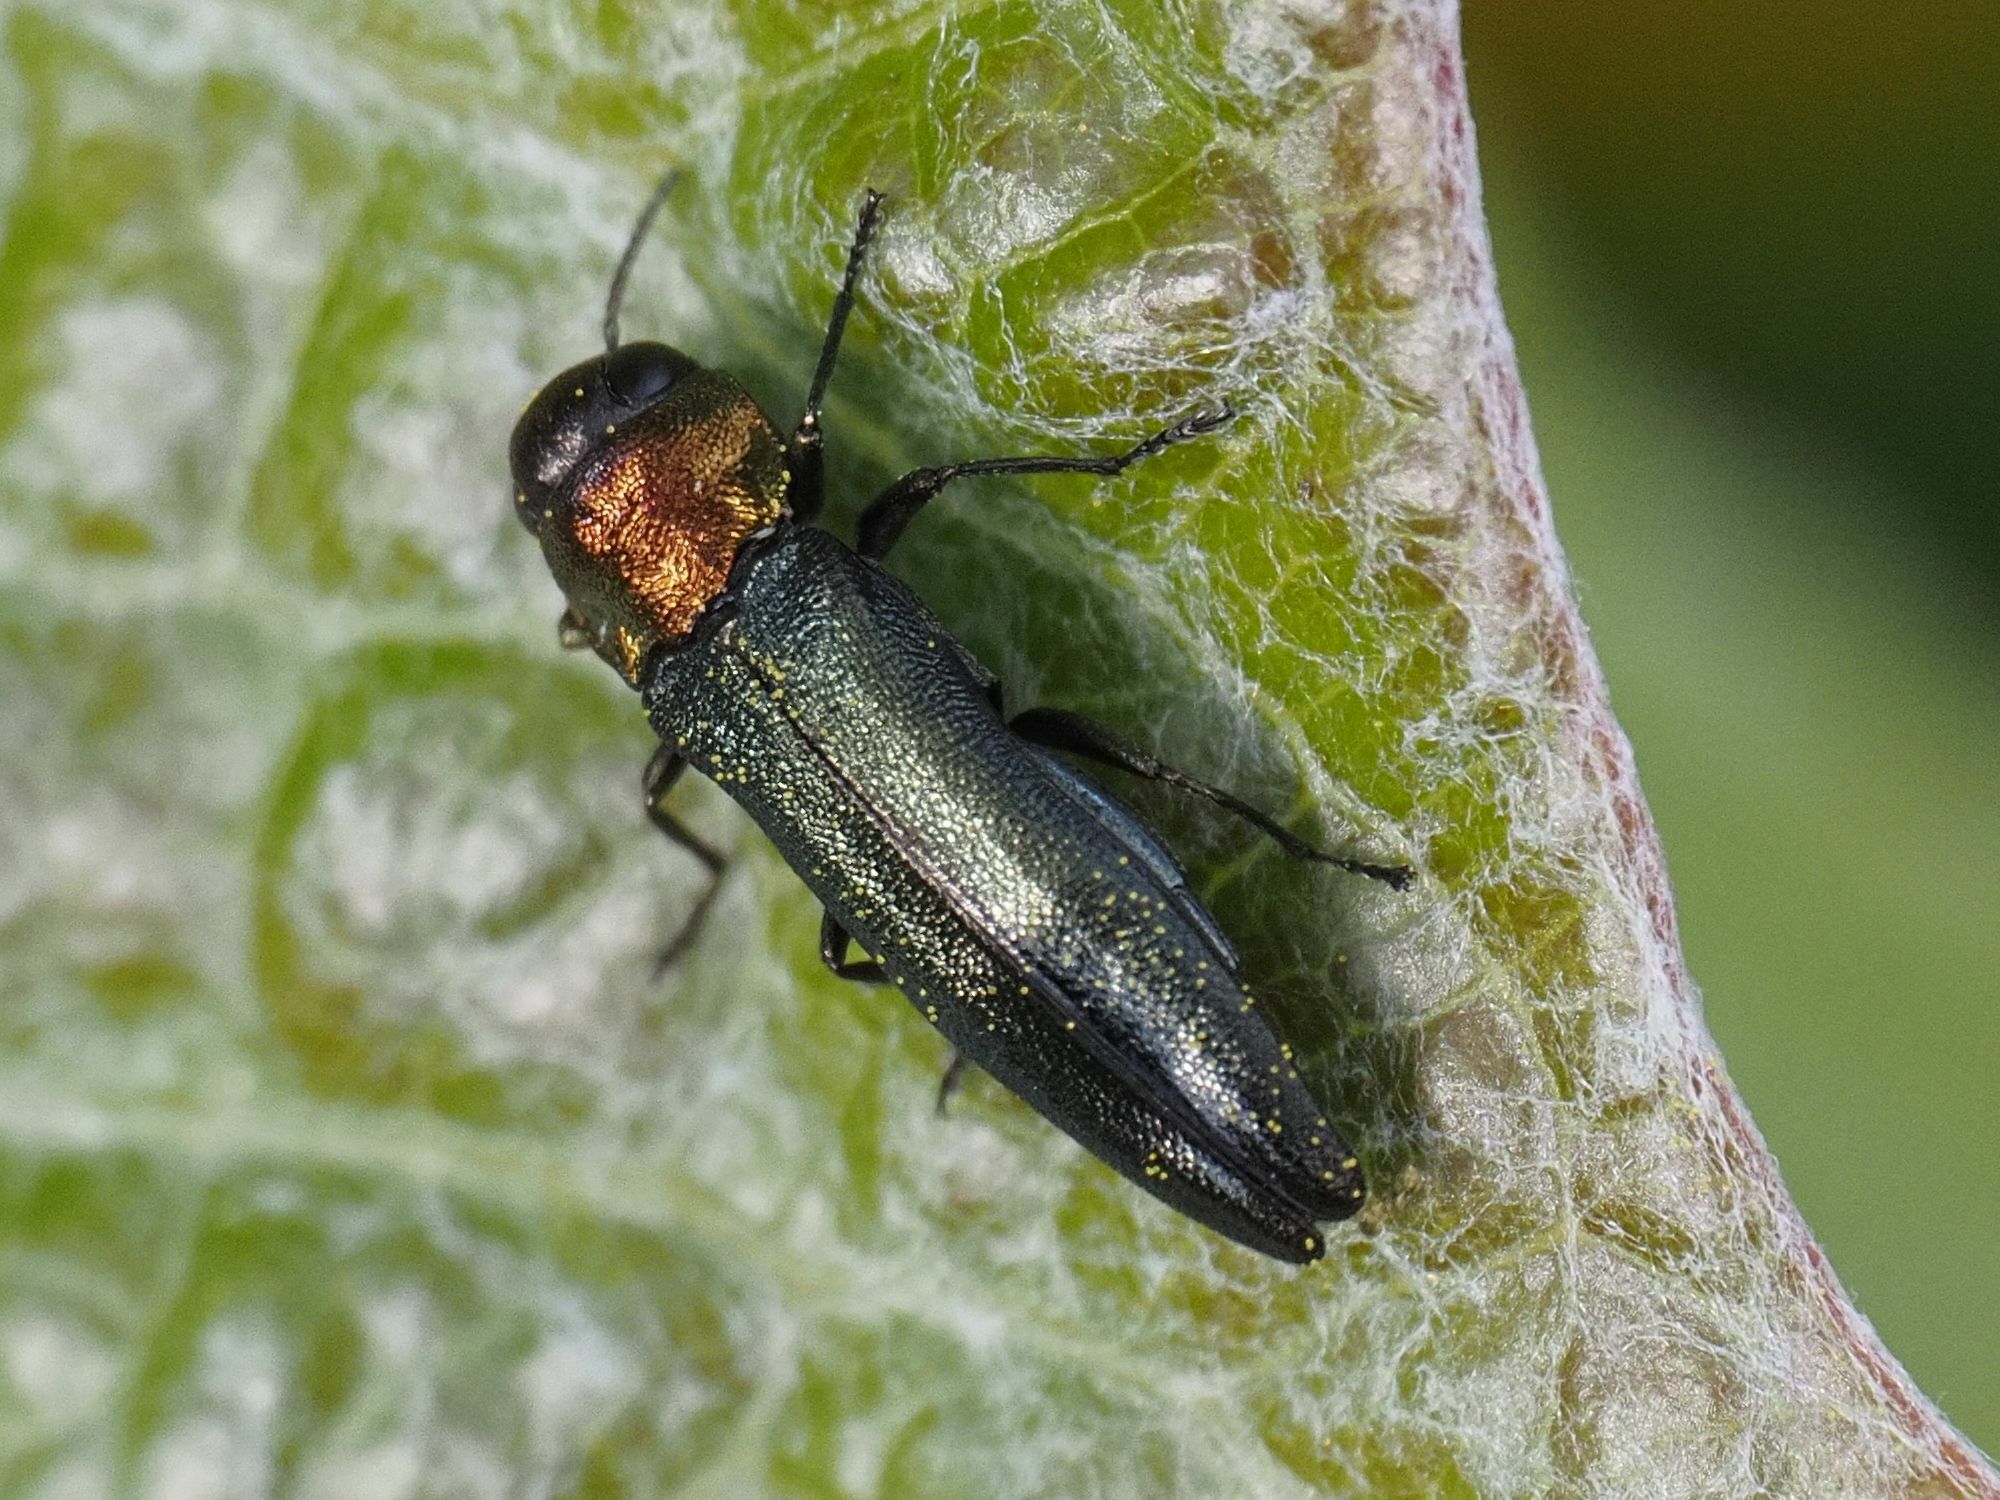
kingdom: Animalia
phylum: Arthropoda
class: Insecta
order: Coleoptera
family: Buprestidae
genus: Agrilus
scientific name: Agrilus pratensis
